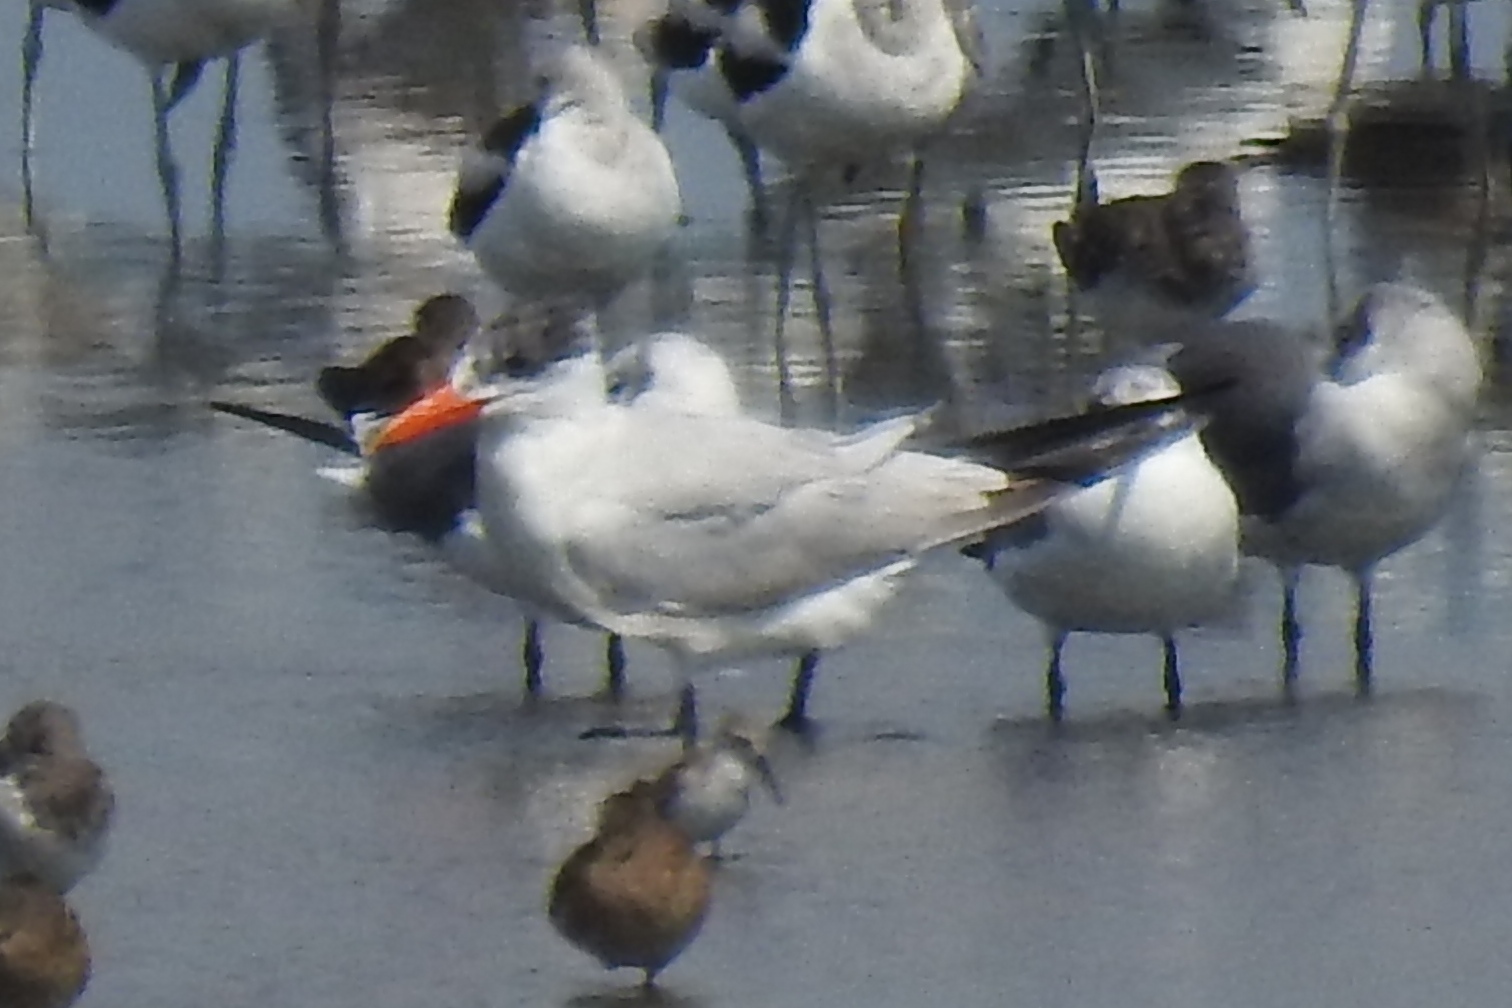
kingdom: Animalia
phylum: Chordata
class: Aves
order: Charadriiformes
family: Laridae
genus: Hydroprogne
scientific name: Hydroprogne caspia
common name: Caspian tern
